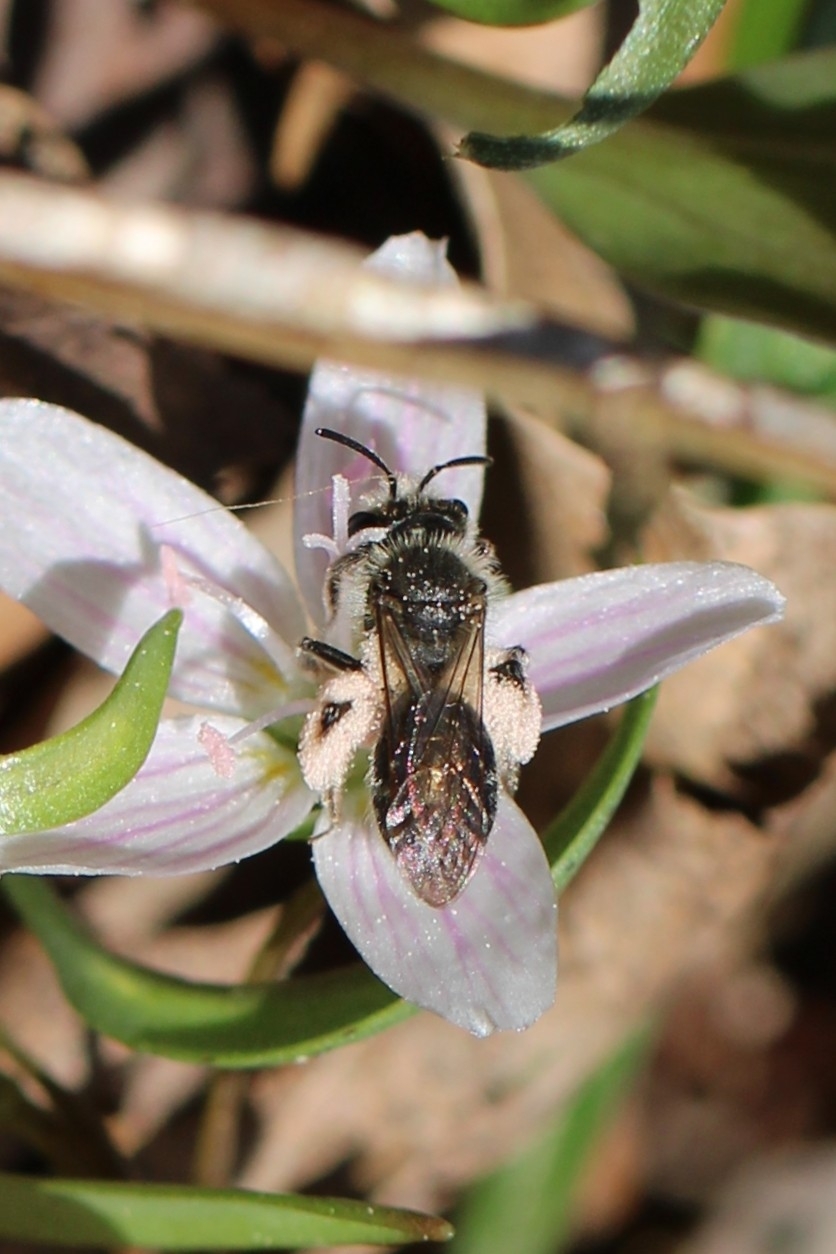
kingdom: Animalia
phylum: Arthropoda
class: Insecta
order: Hymenoptera
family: Andrenidae
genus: Andrena
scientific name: Andrena erigeniae
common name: Spring beauty miner
